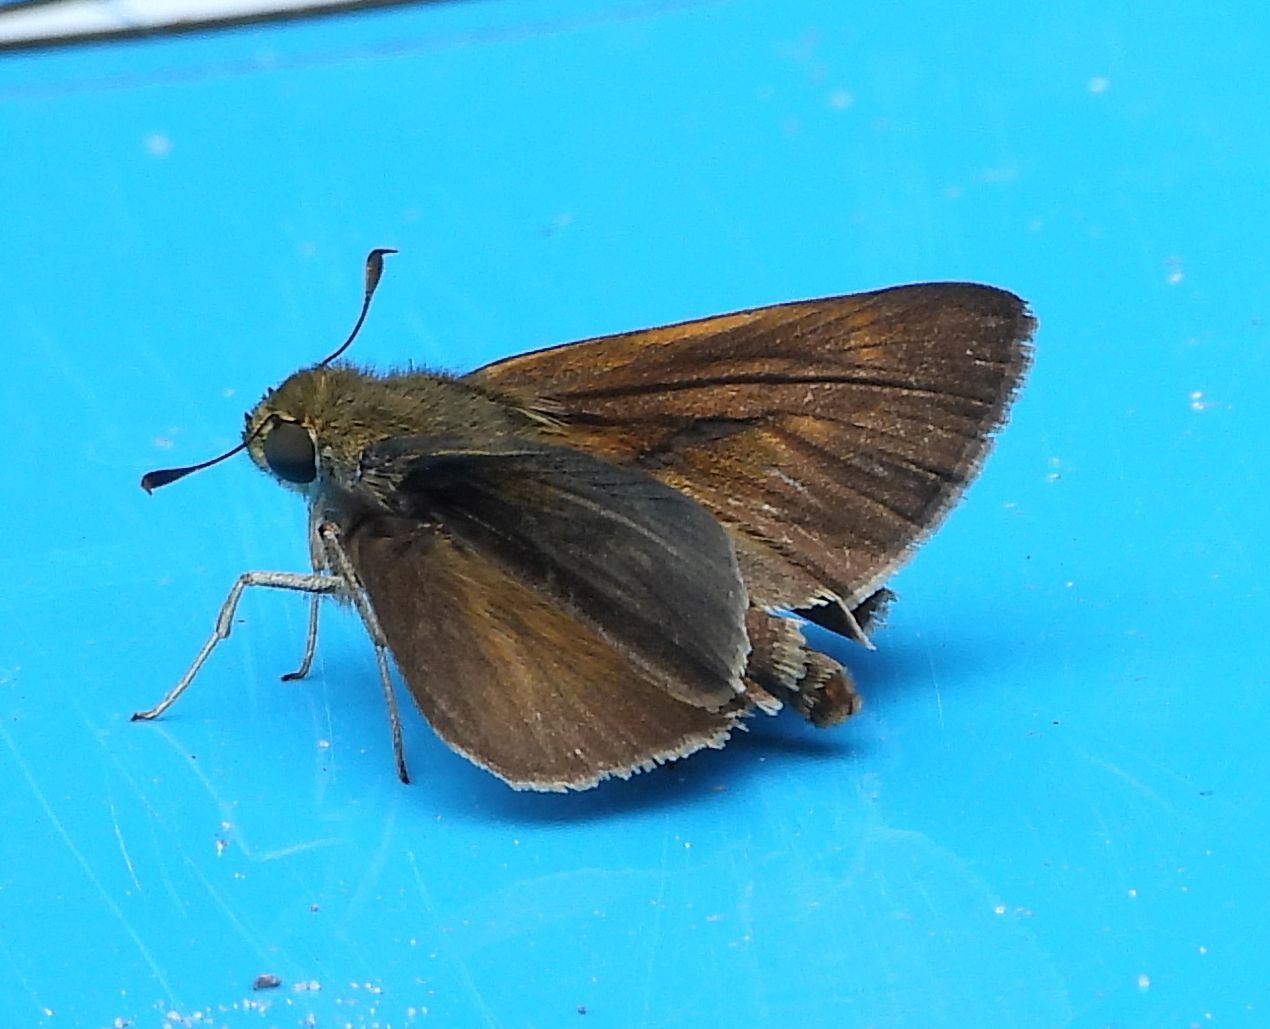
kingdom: Animalia
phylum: Arthropoda
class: Insecta
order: Lepidoptera
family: Hesperiidae
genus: Euphyes
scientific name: Euphyes vestris
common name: Dun skipper
